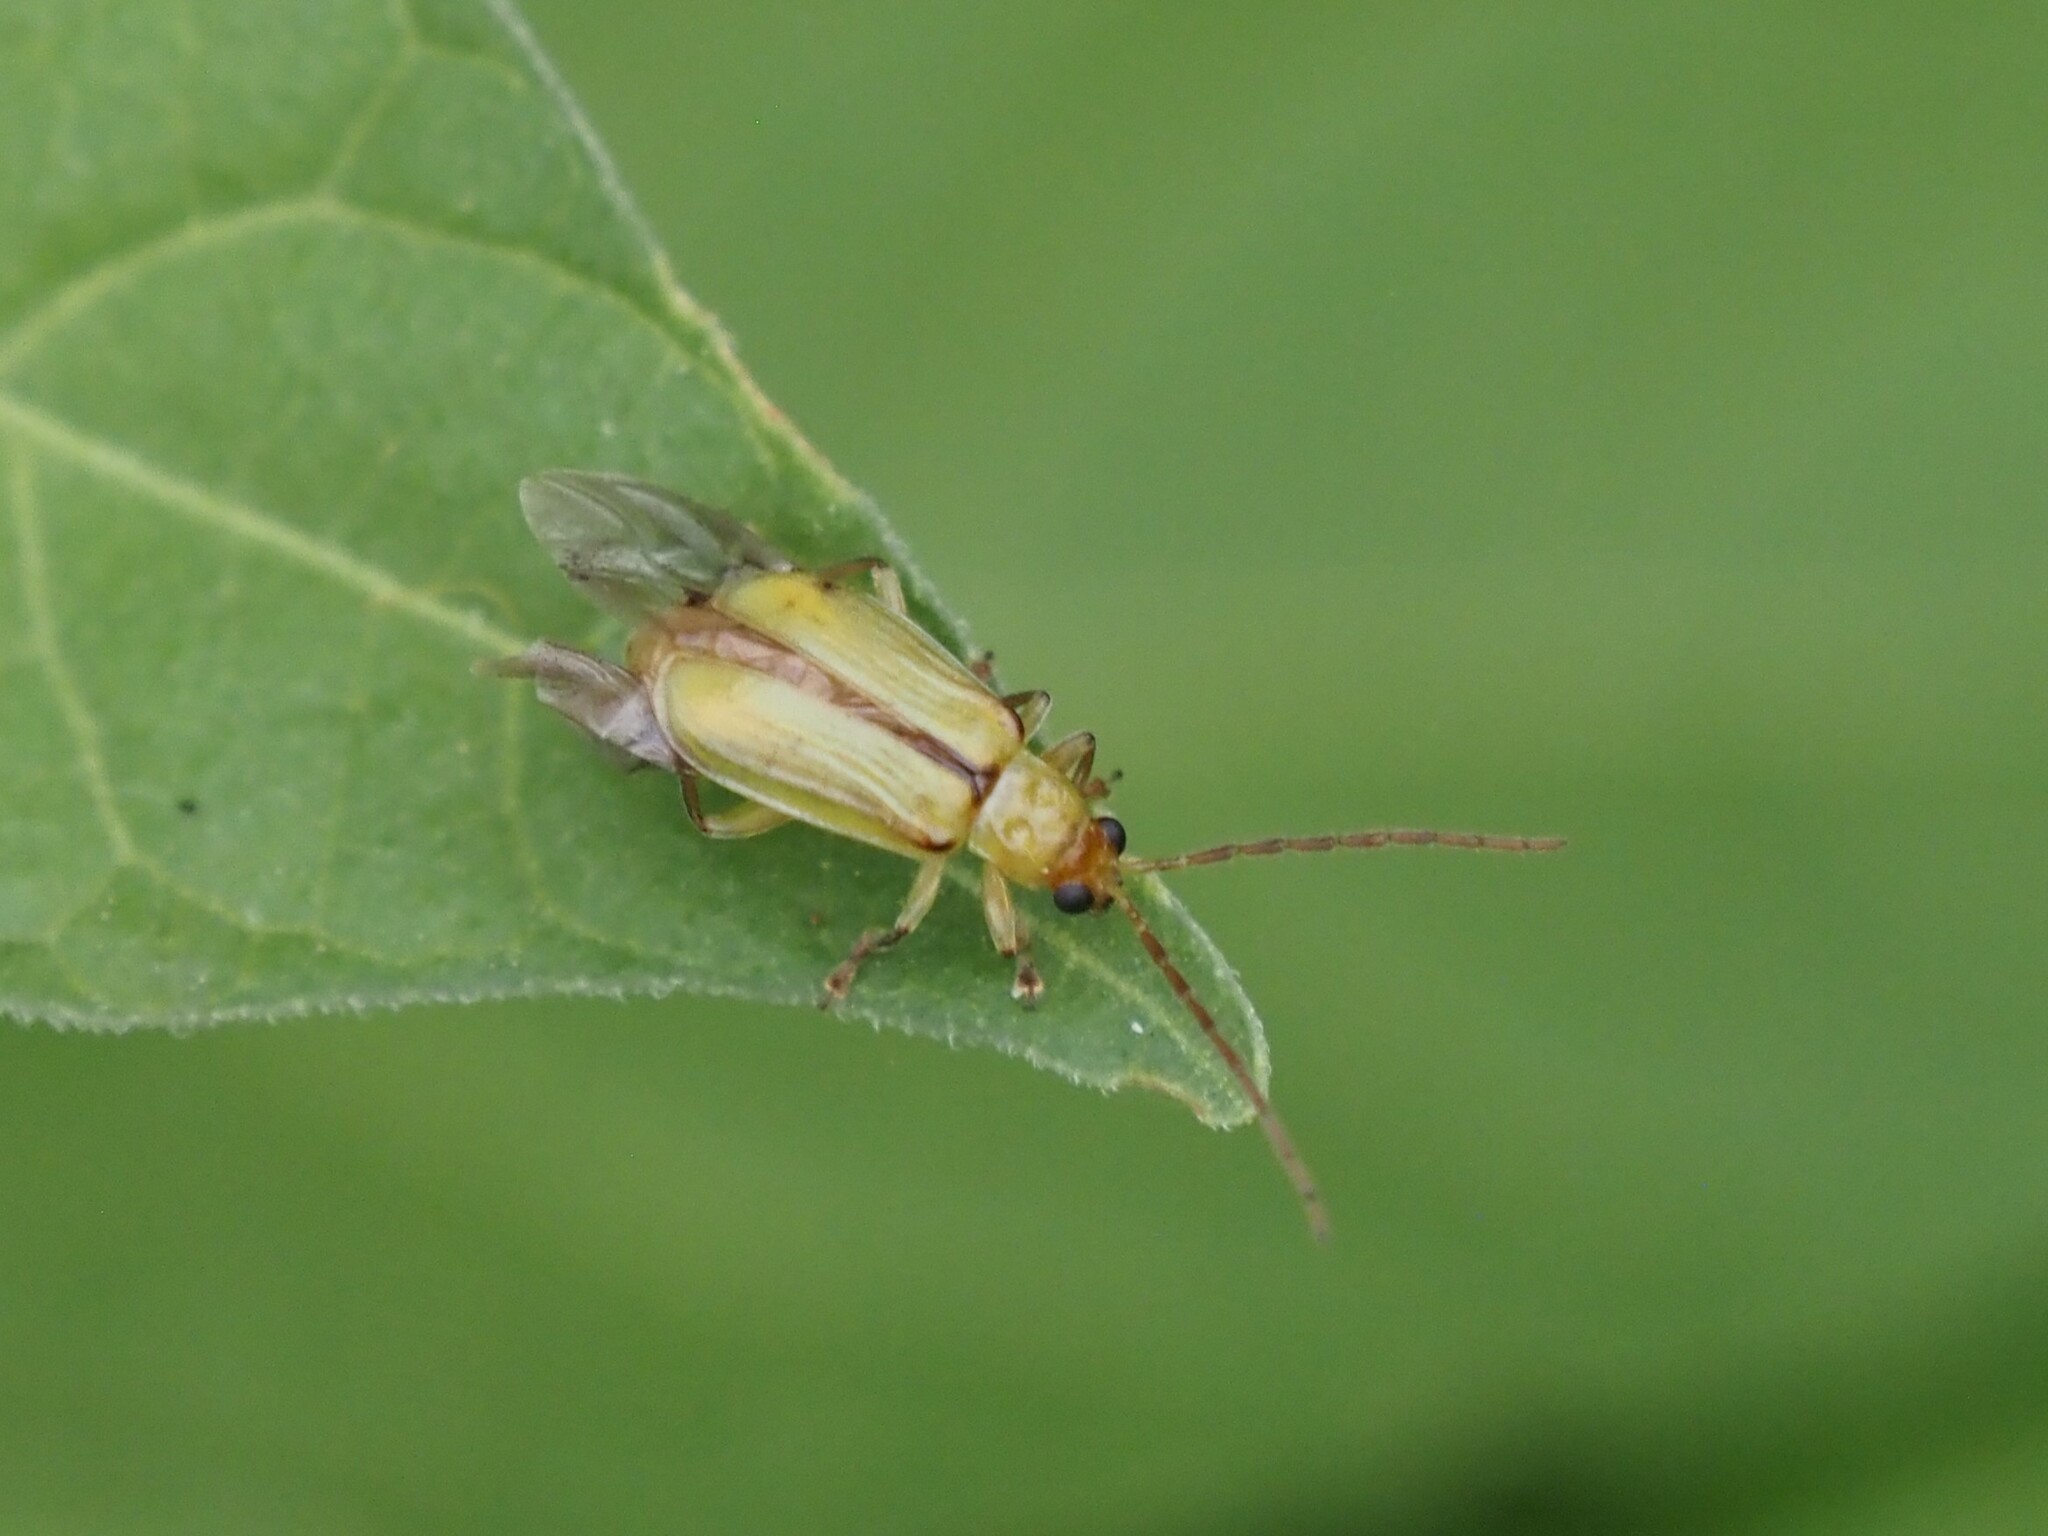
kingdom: Animalia
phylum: Arthropoda
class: Insecta
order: Coleoptera
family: Chrysomelidae
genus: Diabrotica
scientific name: Diabrotica barberi
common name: Northern corn rootworm
